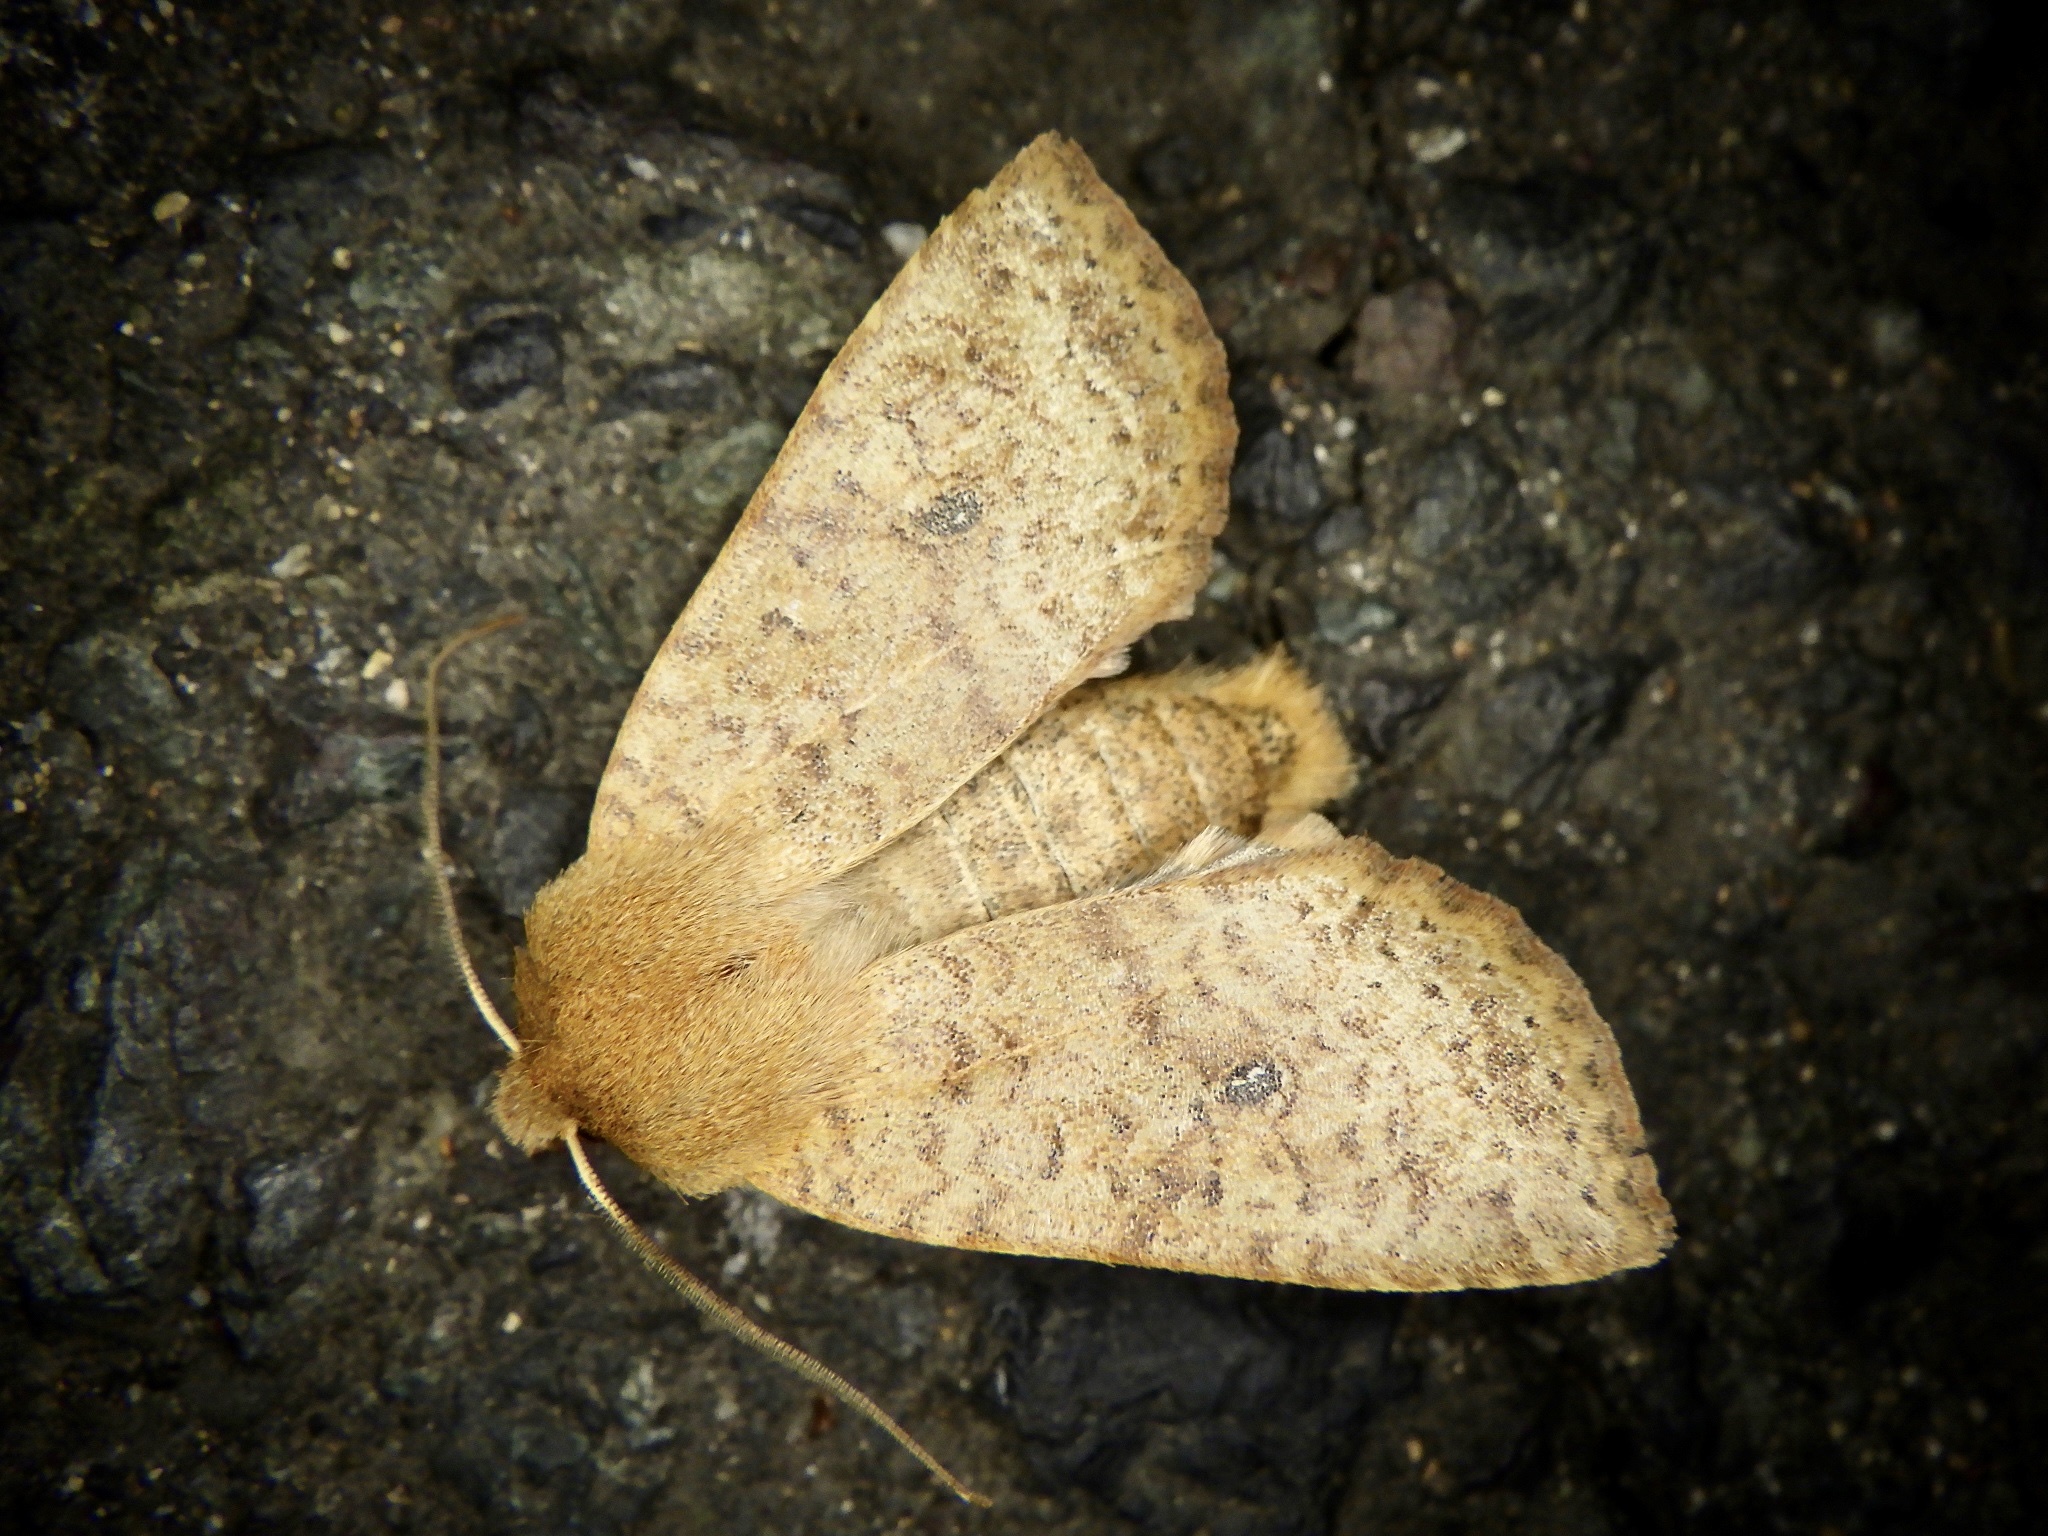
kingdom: Animalia
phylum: Arthropoda
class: Insecta
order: Lepidoptera
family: Noctuidae
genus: Conistra
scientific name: Conistra albipuncta
